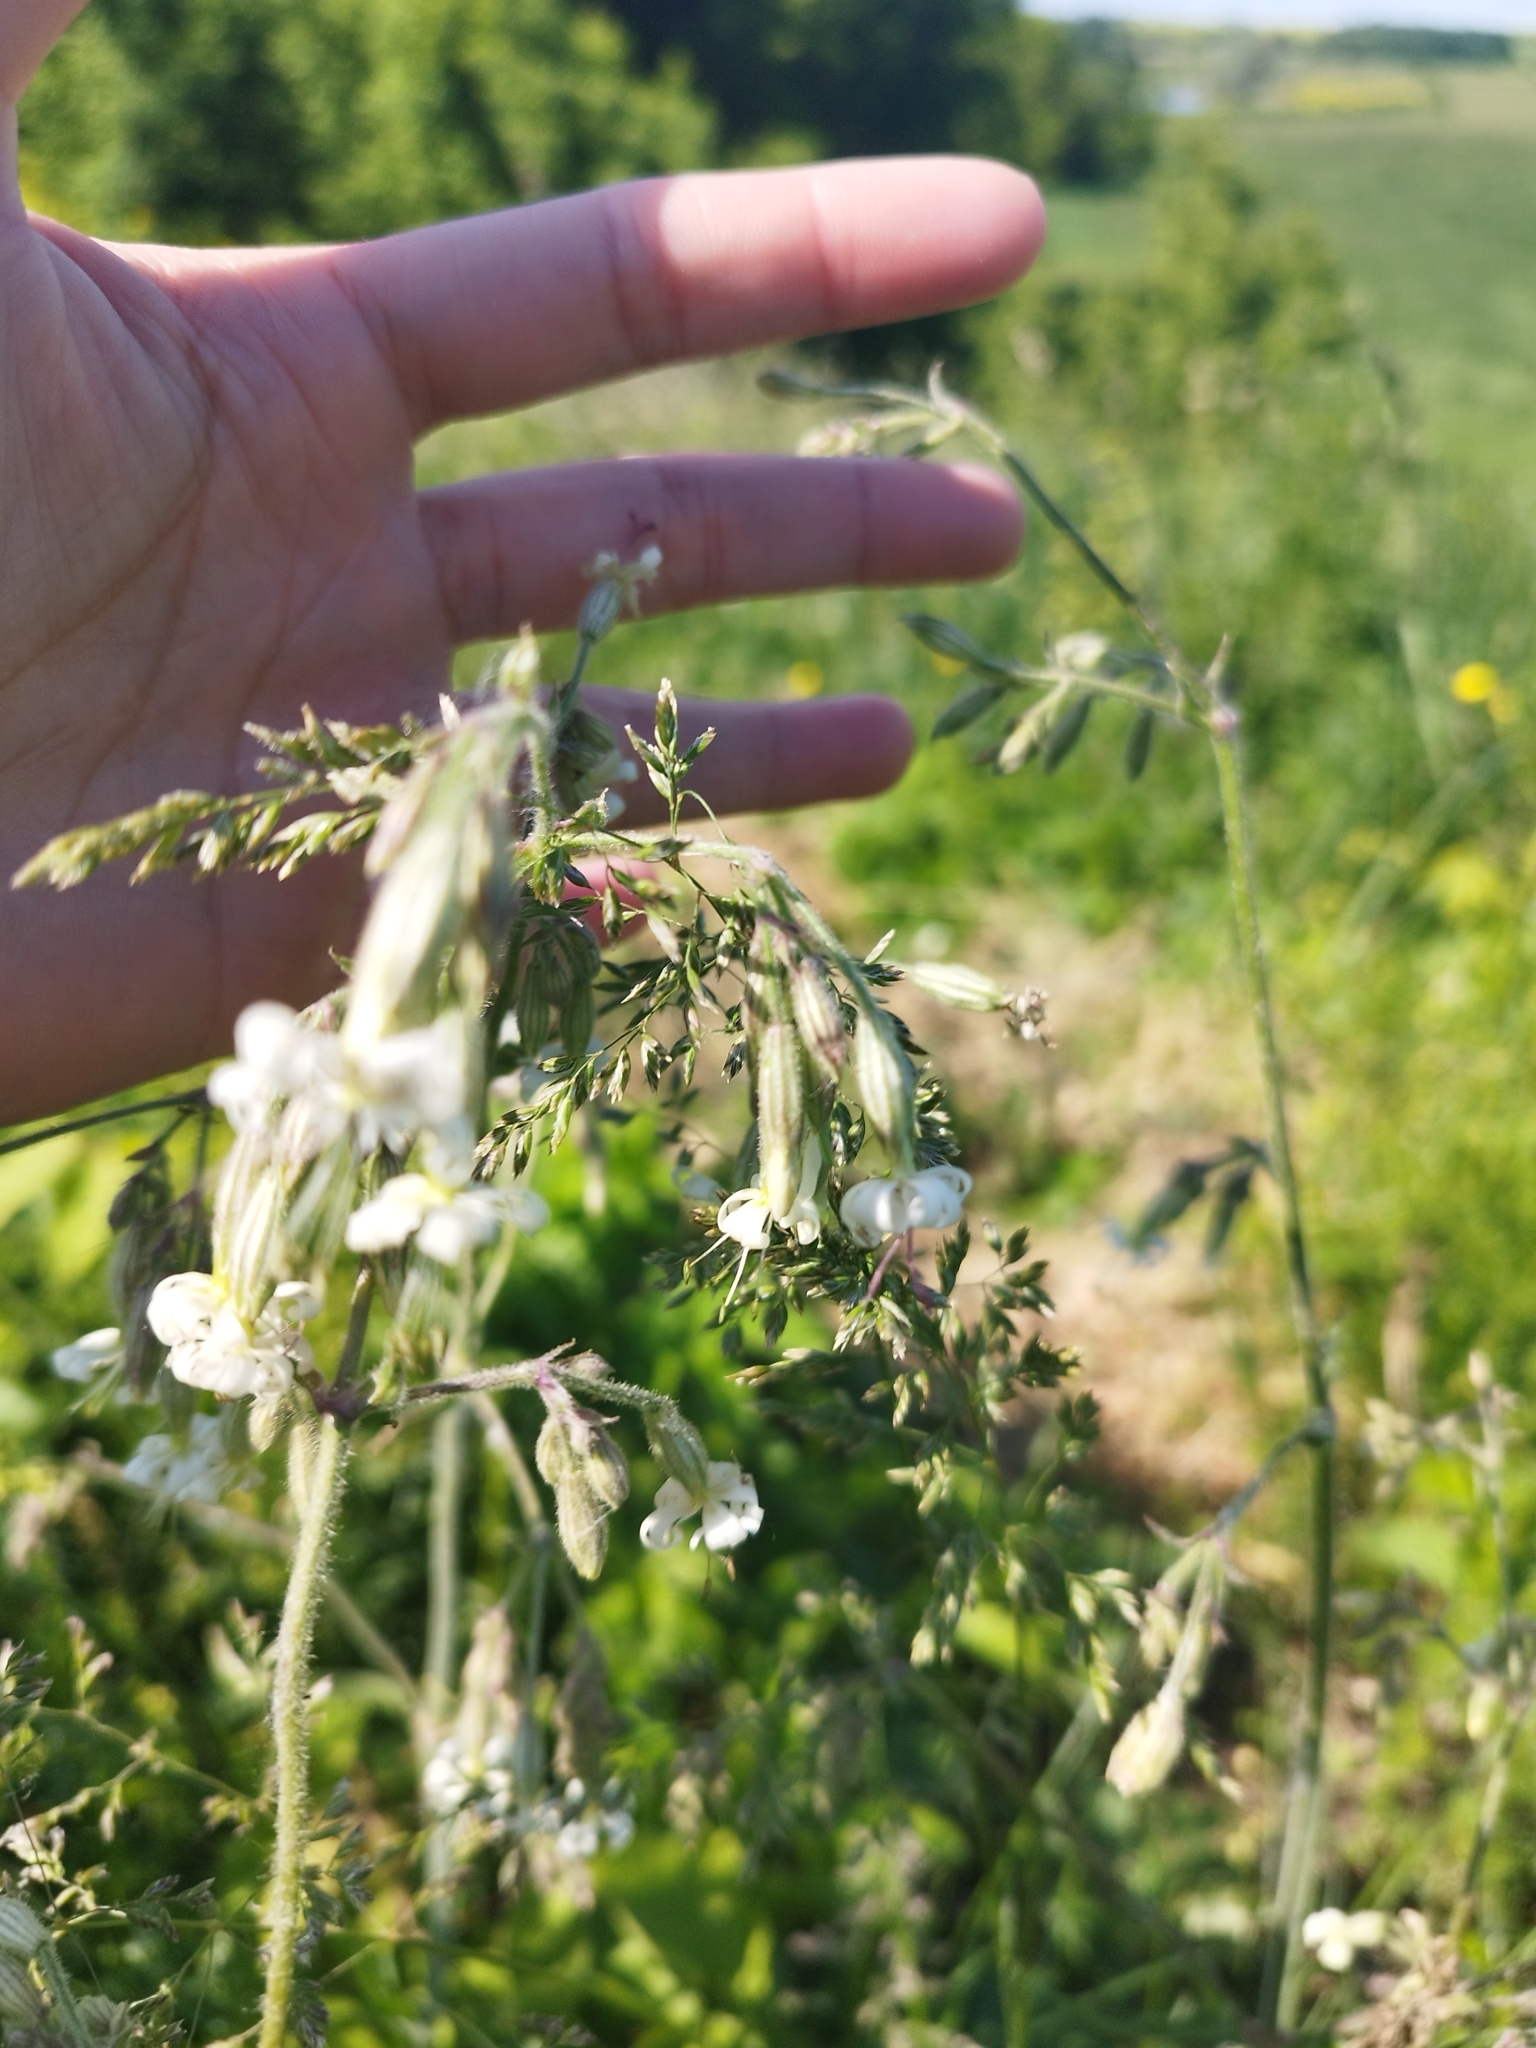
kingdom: Plantae
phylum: Tracheophyta
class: Magnoliopsida
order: Caryophyllales
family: Caryophyllaceae
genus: Silene
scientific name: Silene nutans
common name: Nottingham catchfly
